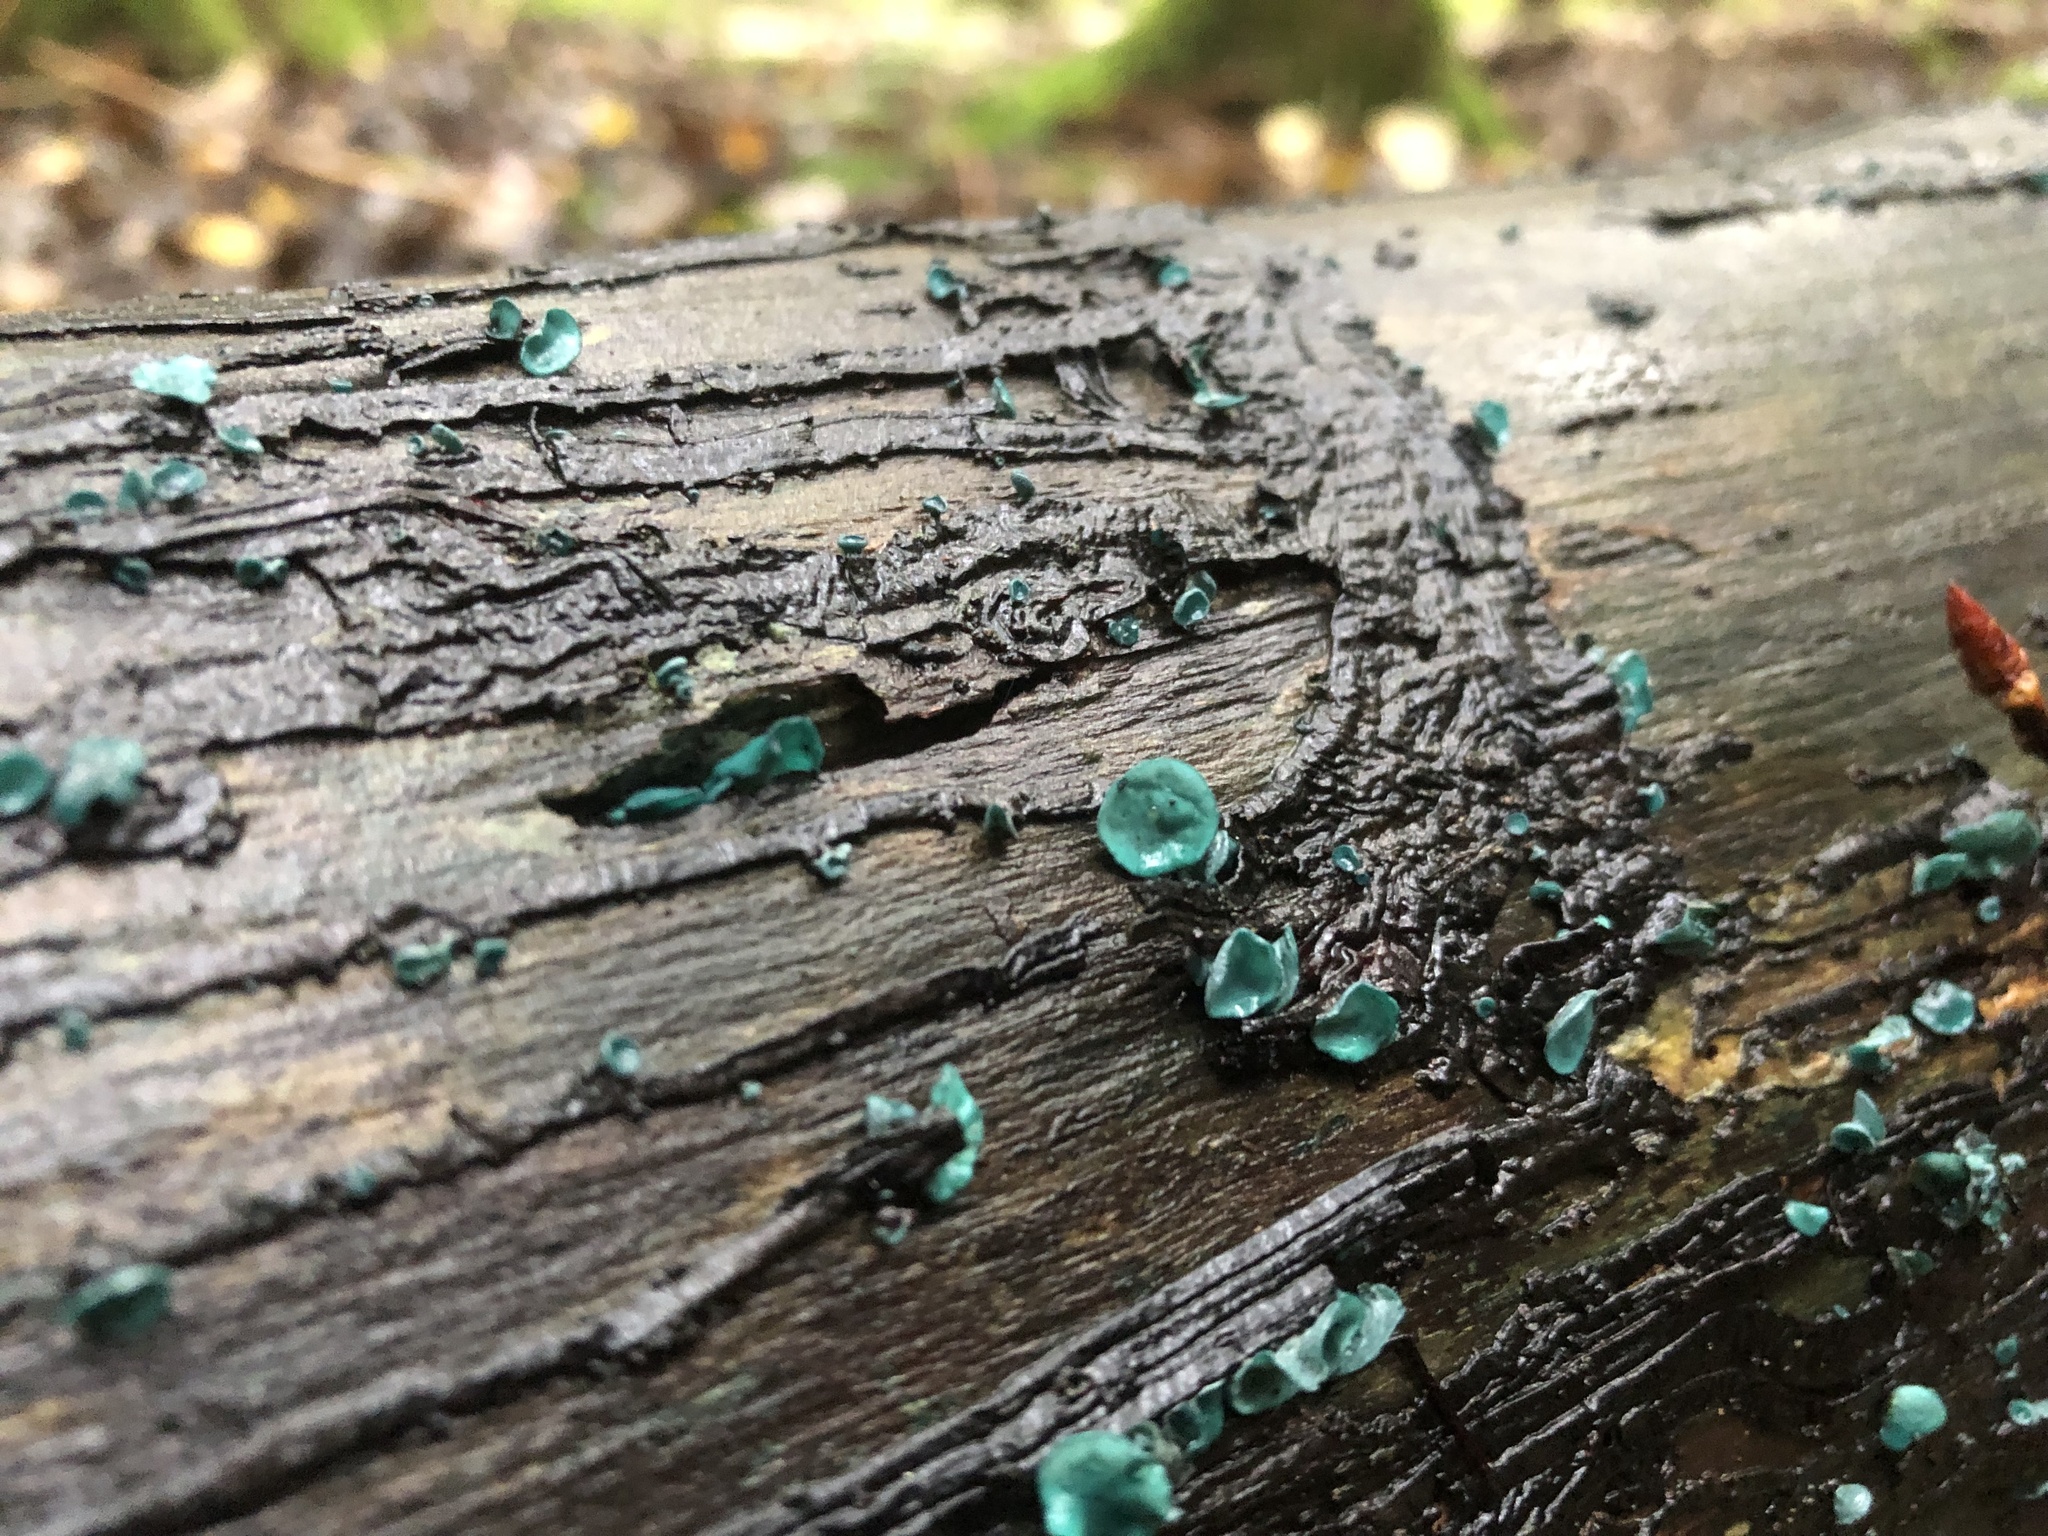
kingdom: Fungi
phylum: Ascomycota
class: Leotiomycetes
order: Helotiales
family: Chlorociboriaceae
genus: Chlorociboria
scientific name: Chlorociboria aeruginascens
